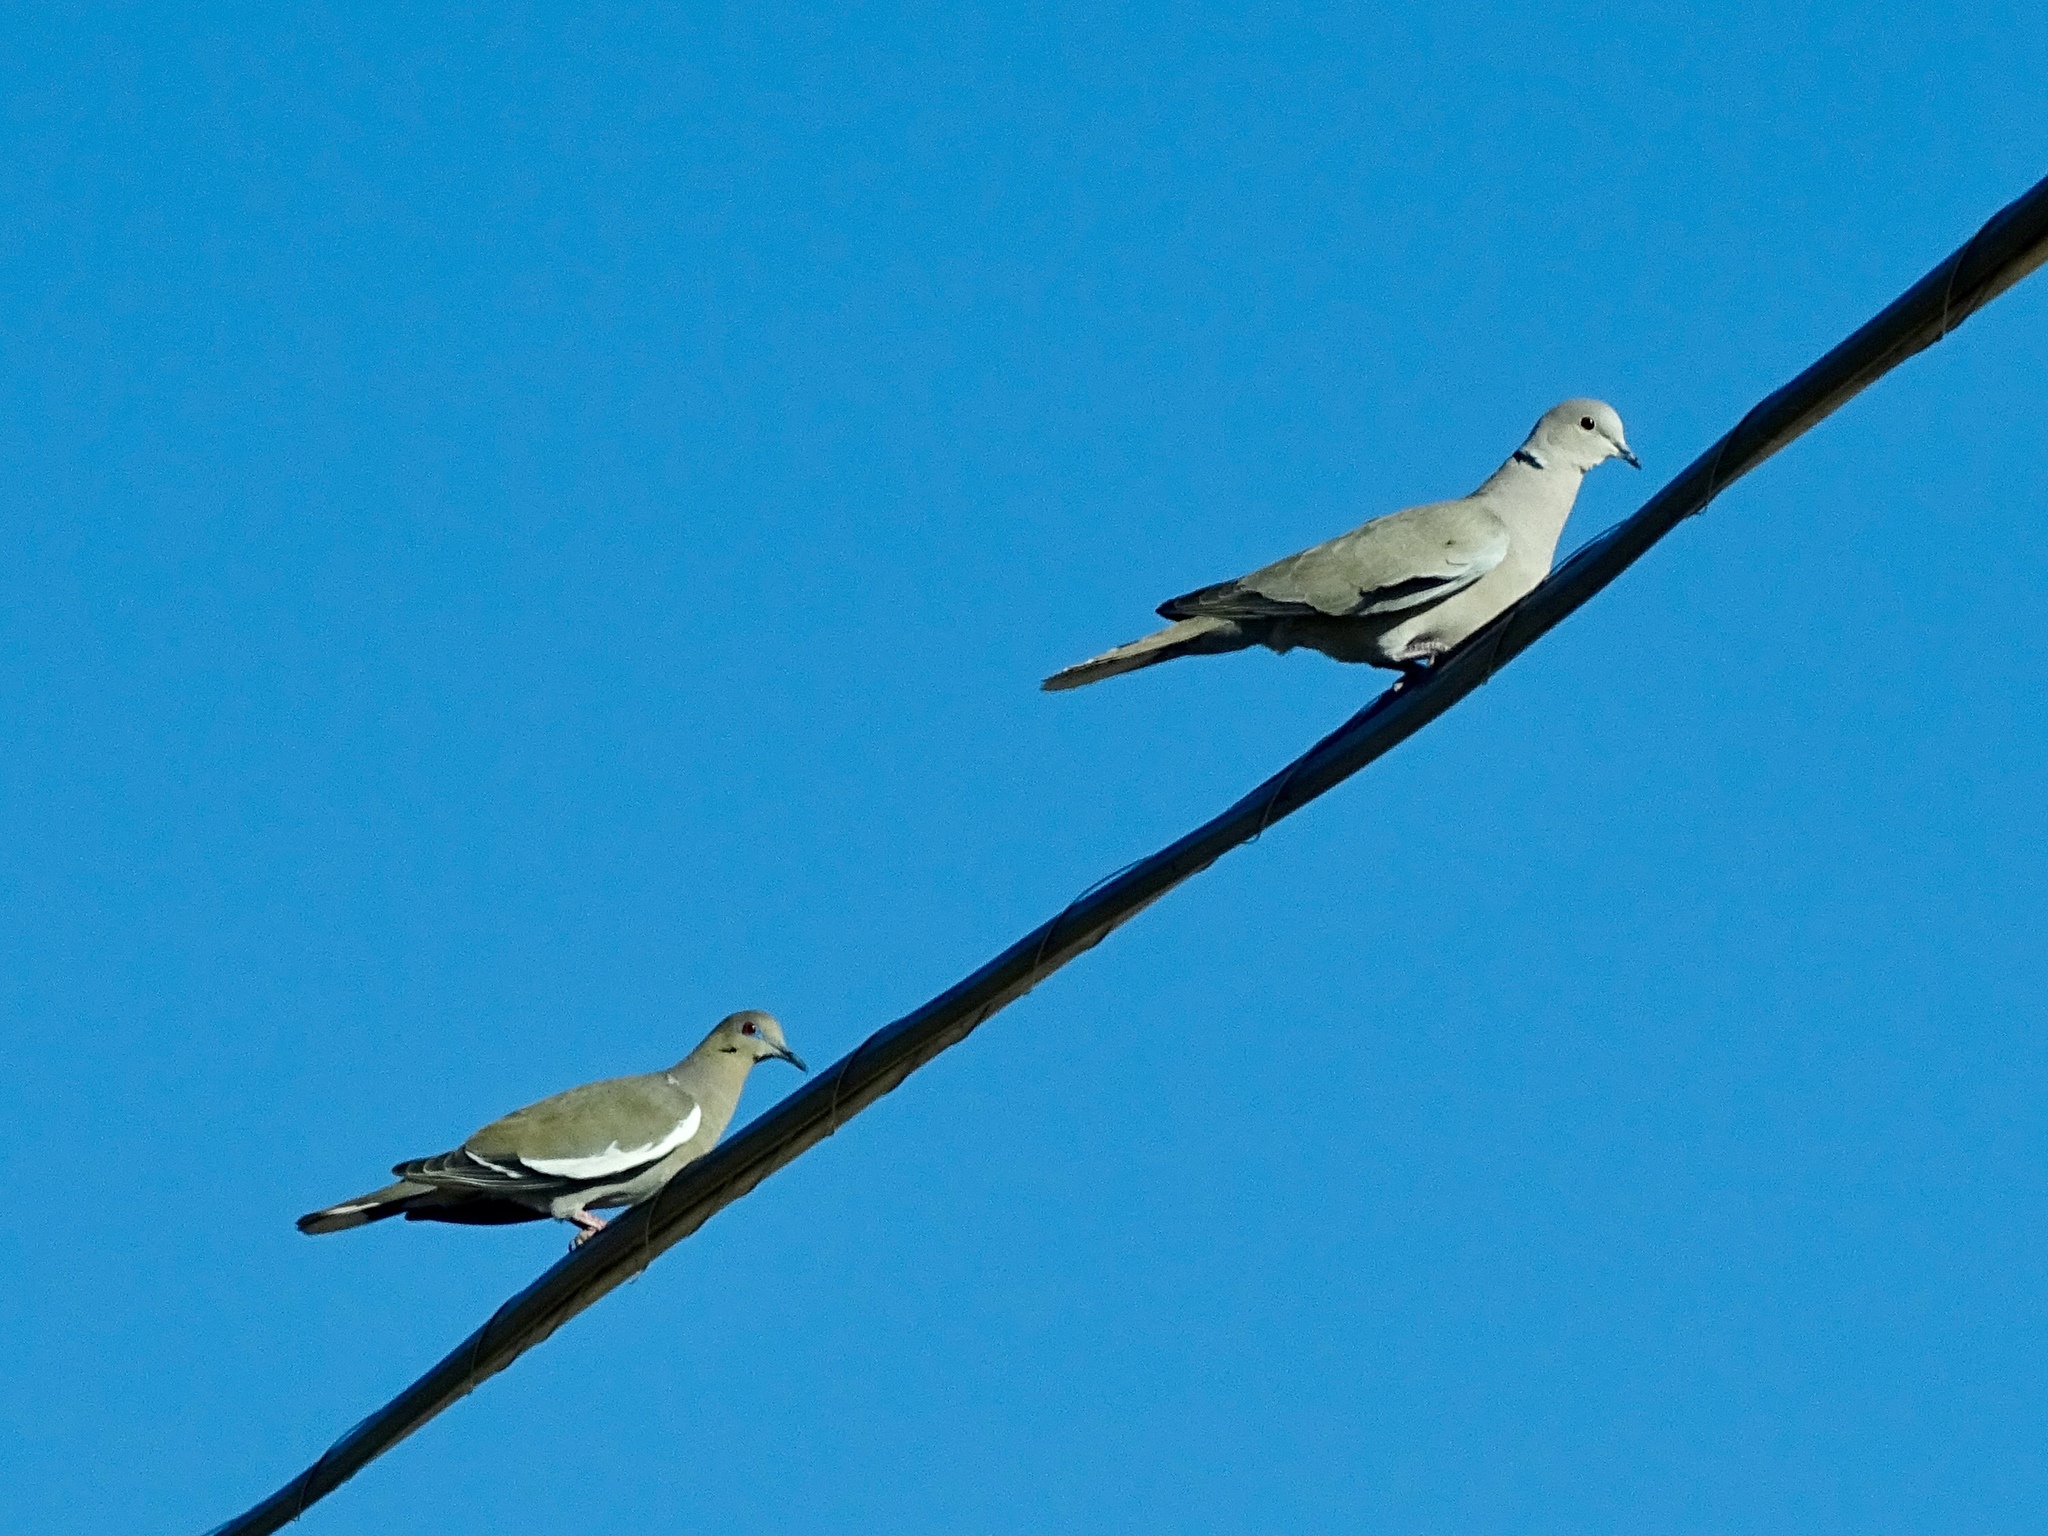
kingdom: Animalia
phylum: Chordata
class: Aves
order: Columbiformes
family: Columbidae
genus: Streptopelia
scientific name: Streptopelia decaocto
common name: Eurasian collared dove
